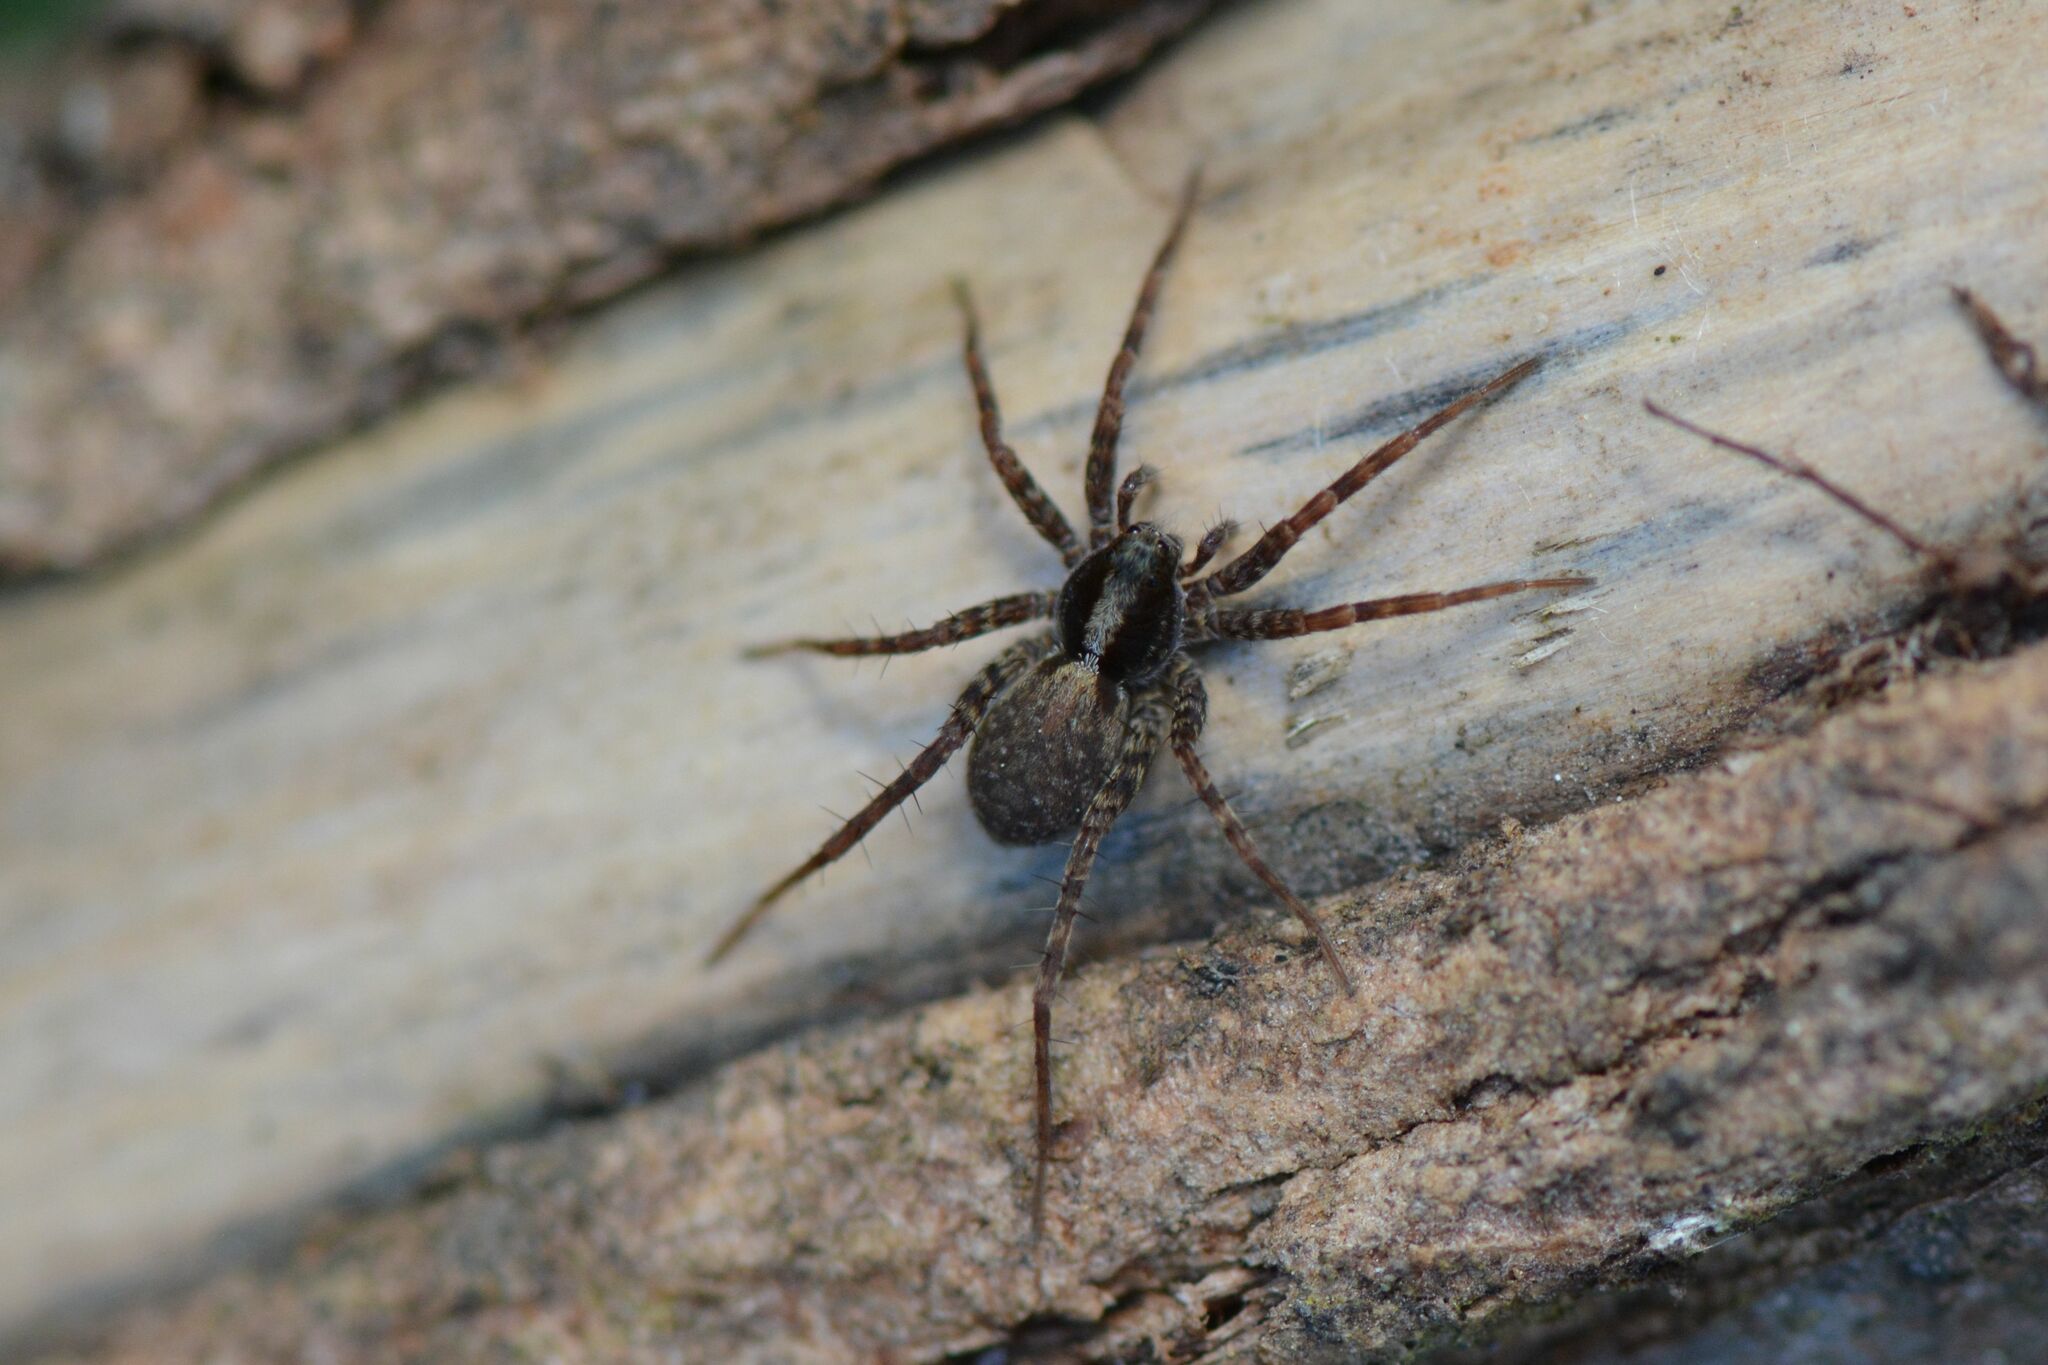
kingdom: Animalia
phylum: Arthropoda
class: Arachnida
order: Araneae
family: Lycosidae
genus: Pardosa
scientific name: Pardosa
